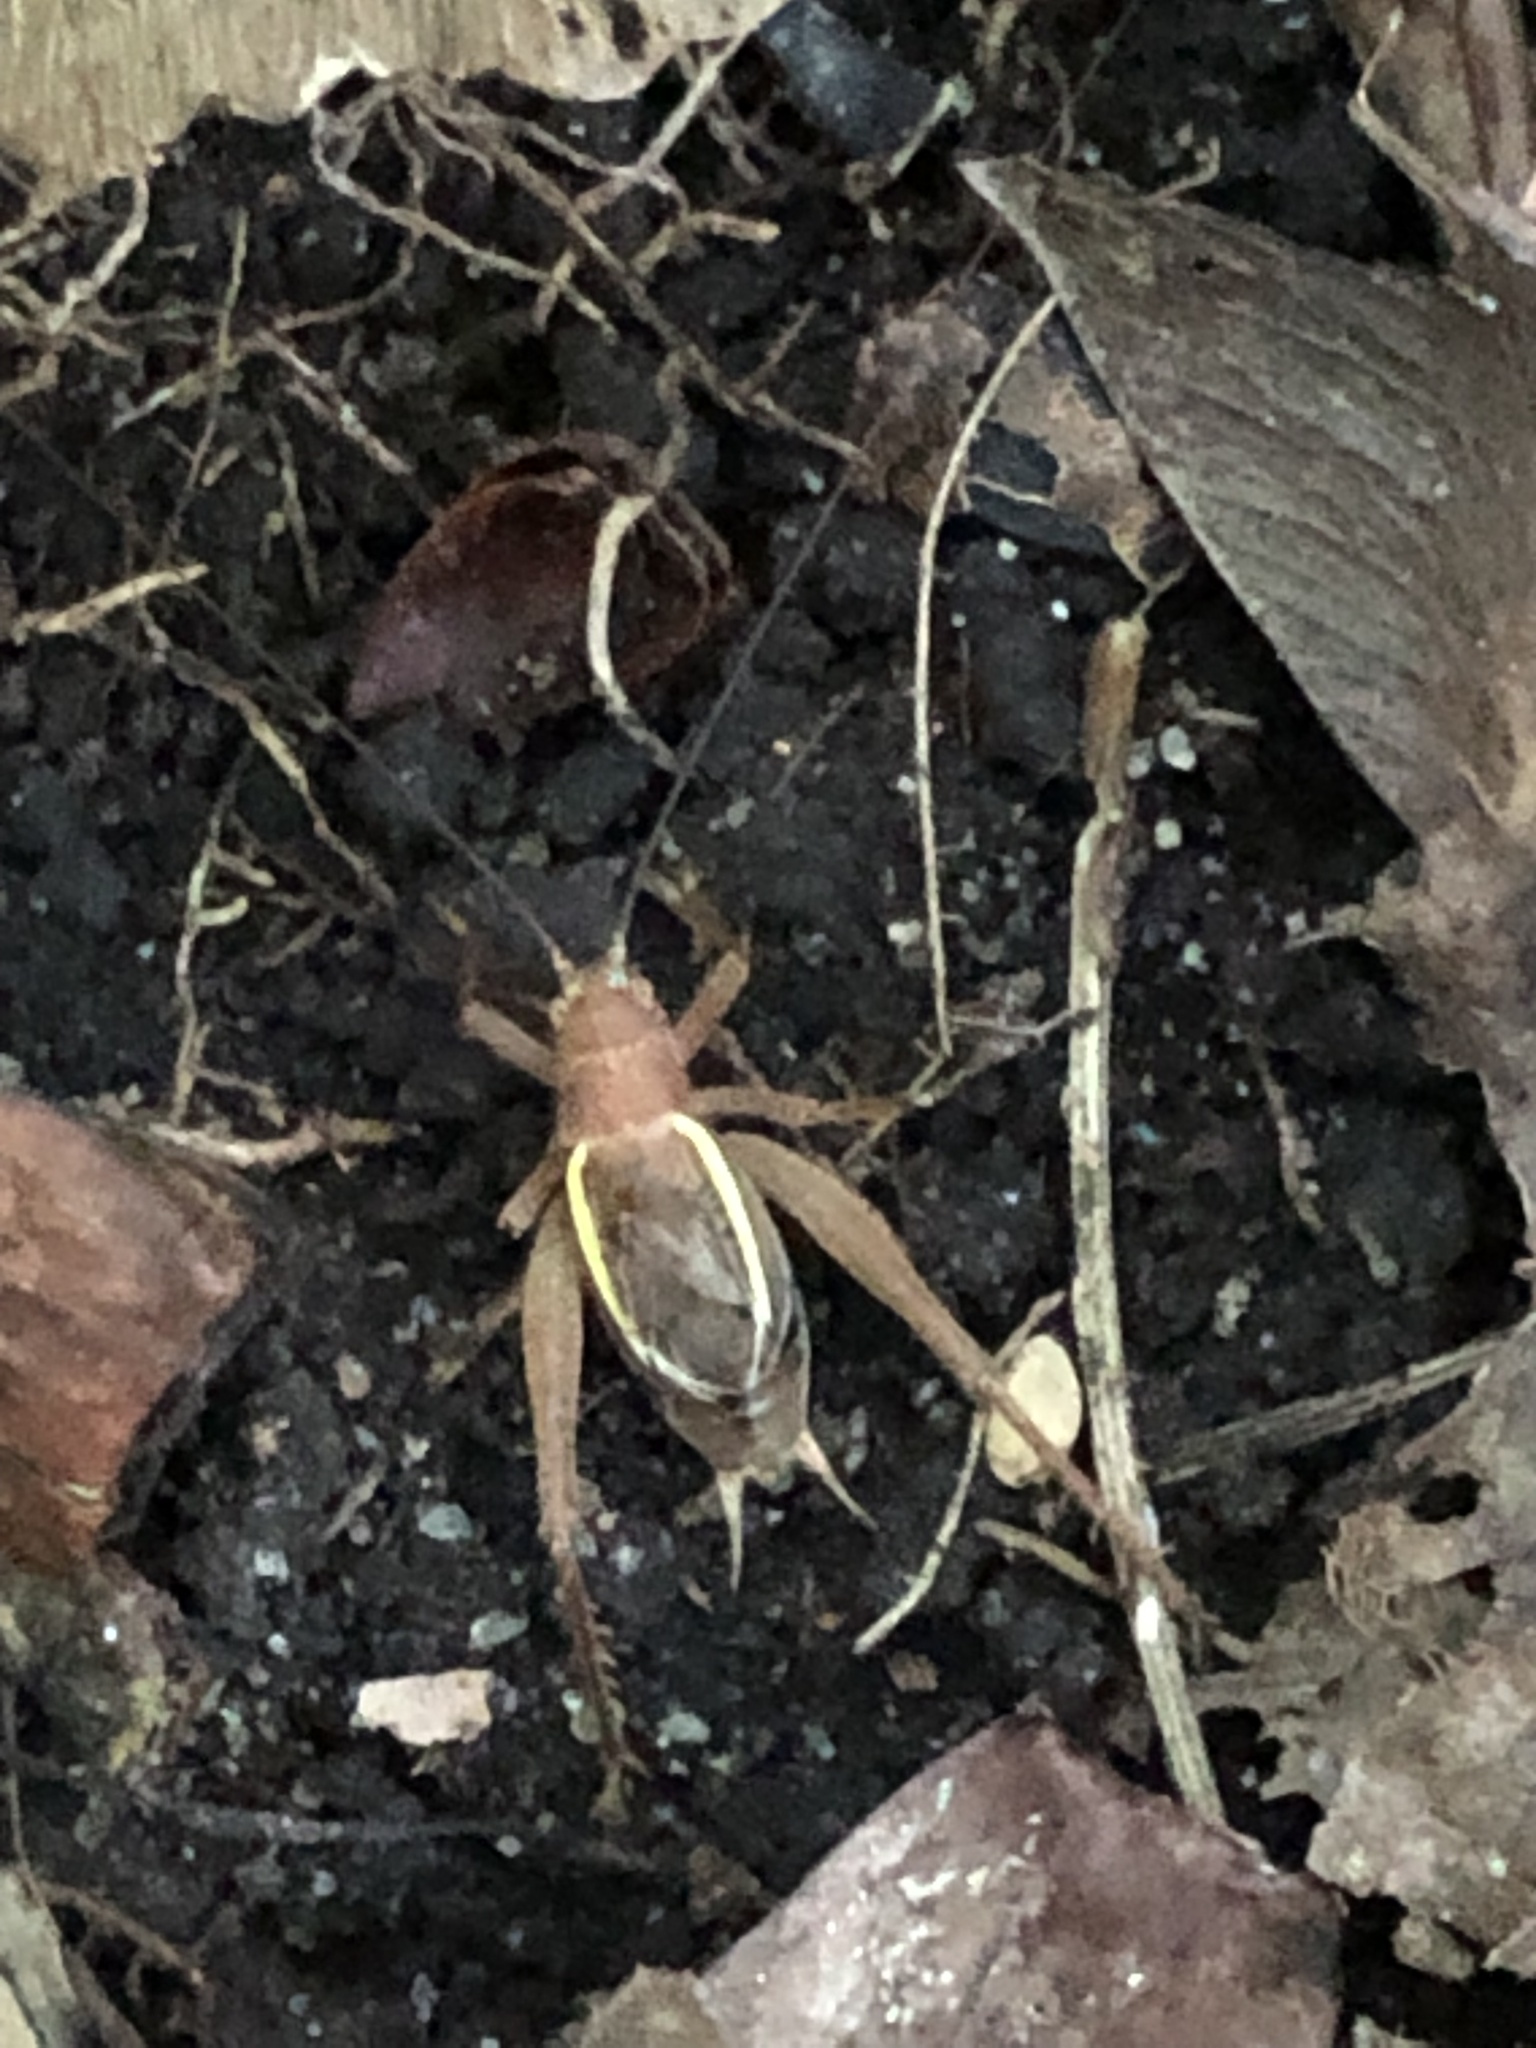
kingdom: Animalia
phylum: Arthropoda
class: Insecta
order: Orthoptera
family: Gryllidae
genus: Hapithus
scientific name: Hapithus agitator
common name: Restless bush cricket
